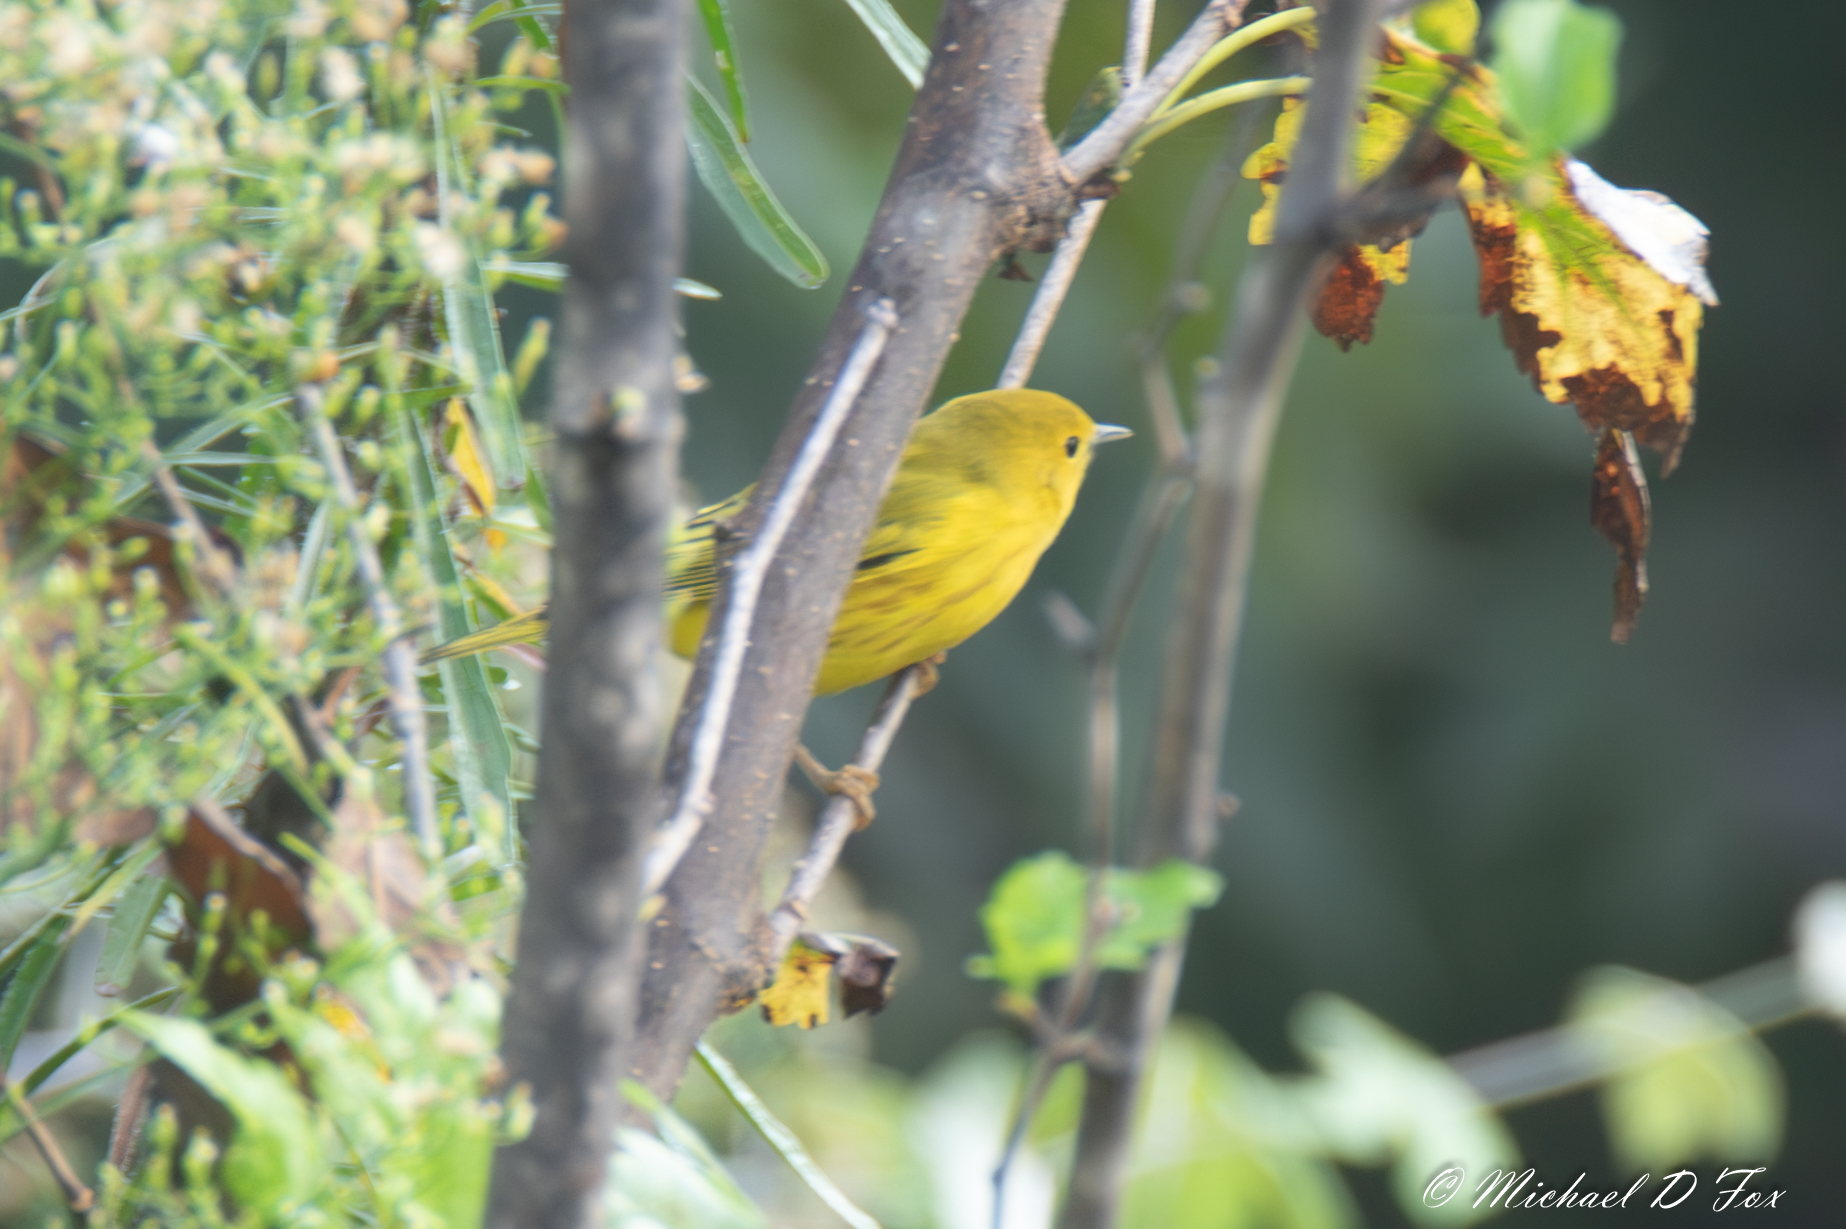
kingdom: Animalia
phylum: Chordata
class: Aves
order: Passeriformes
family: Parulidae
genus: Setophaga
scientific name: Setophaga petechia
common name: Yellow warbler
